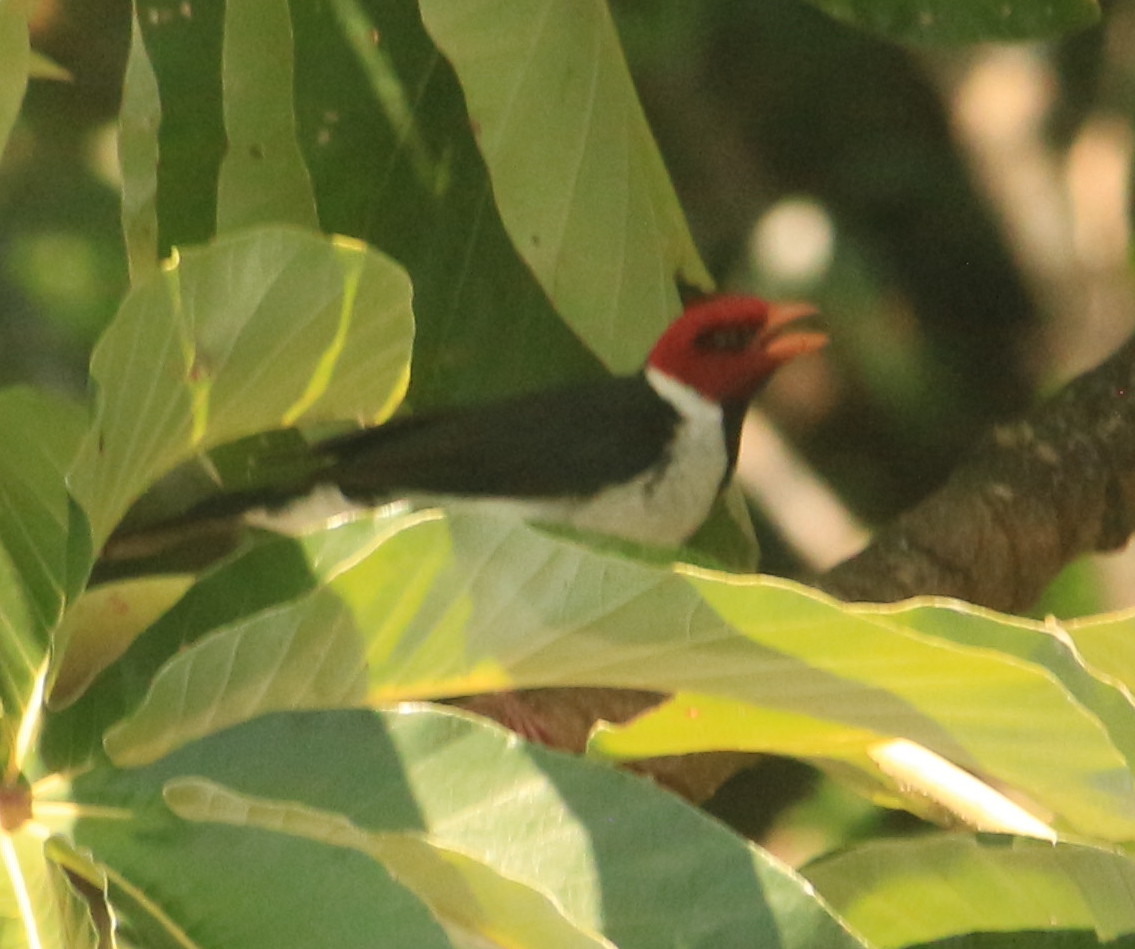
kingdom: Animalia
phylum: Chordata
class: Aves
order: Passeriformes
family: Thraupidae
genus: Paroaria
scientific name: Paroaria capitata
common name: Yellow-billed cardinal
